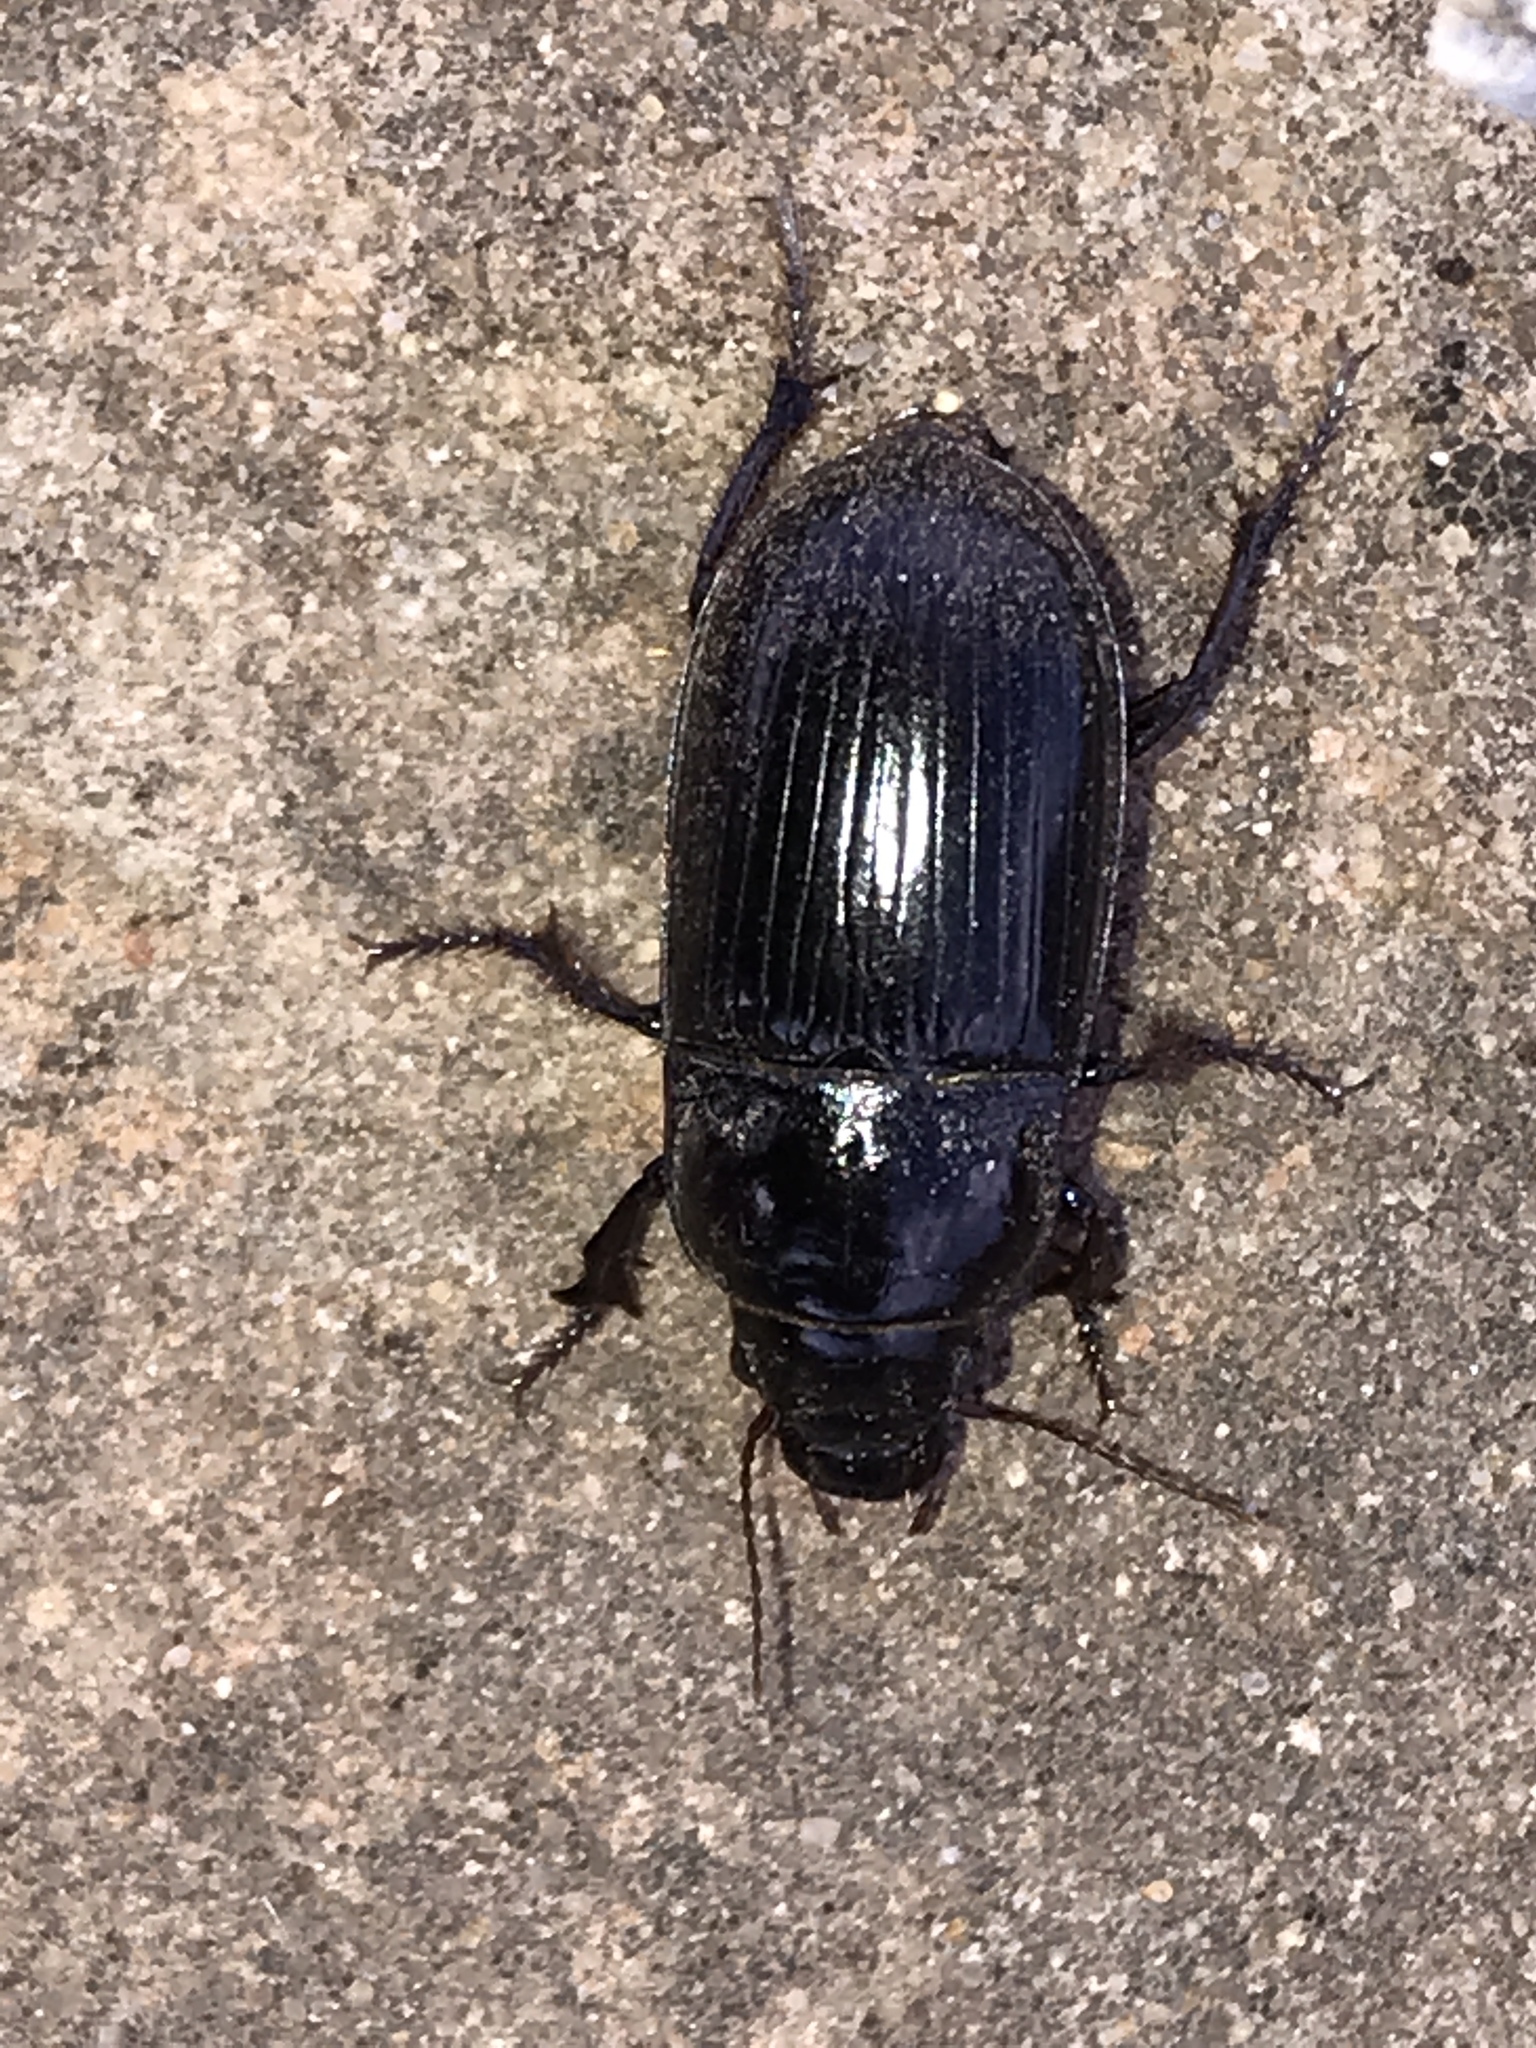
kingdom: Animalia
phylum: Arthropoda
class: Insecta
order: Coleoptera
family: Carabidae
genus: Euryderus
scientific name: Euryderus grossus
